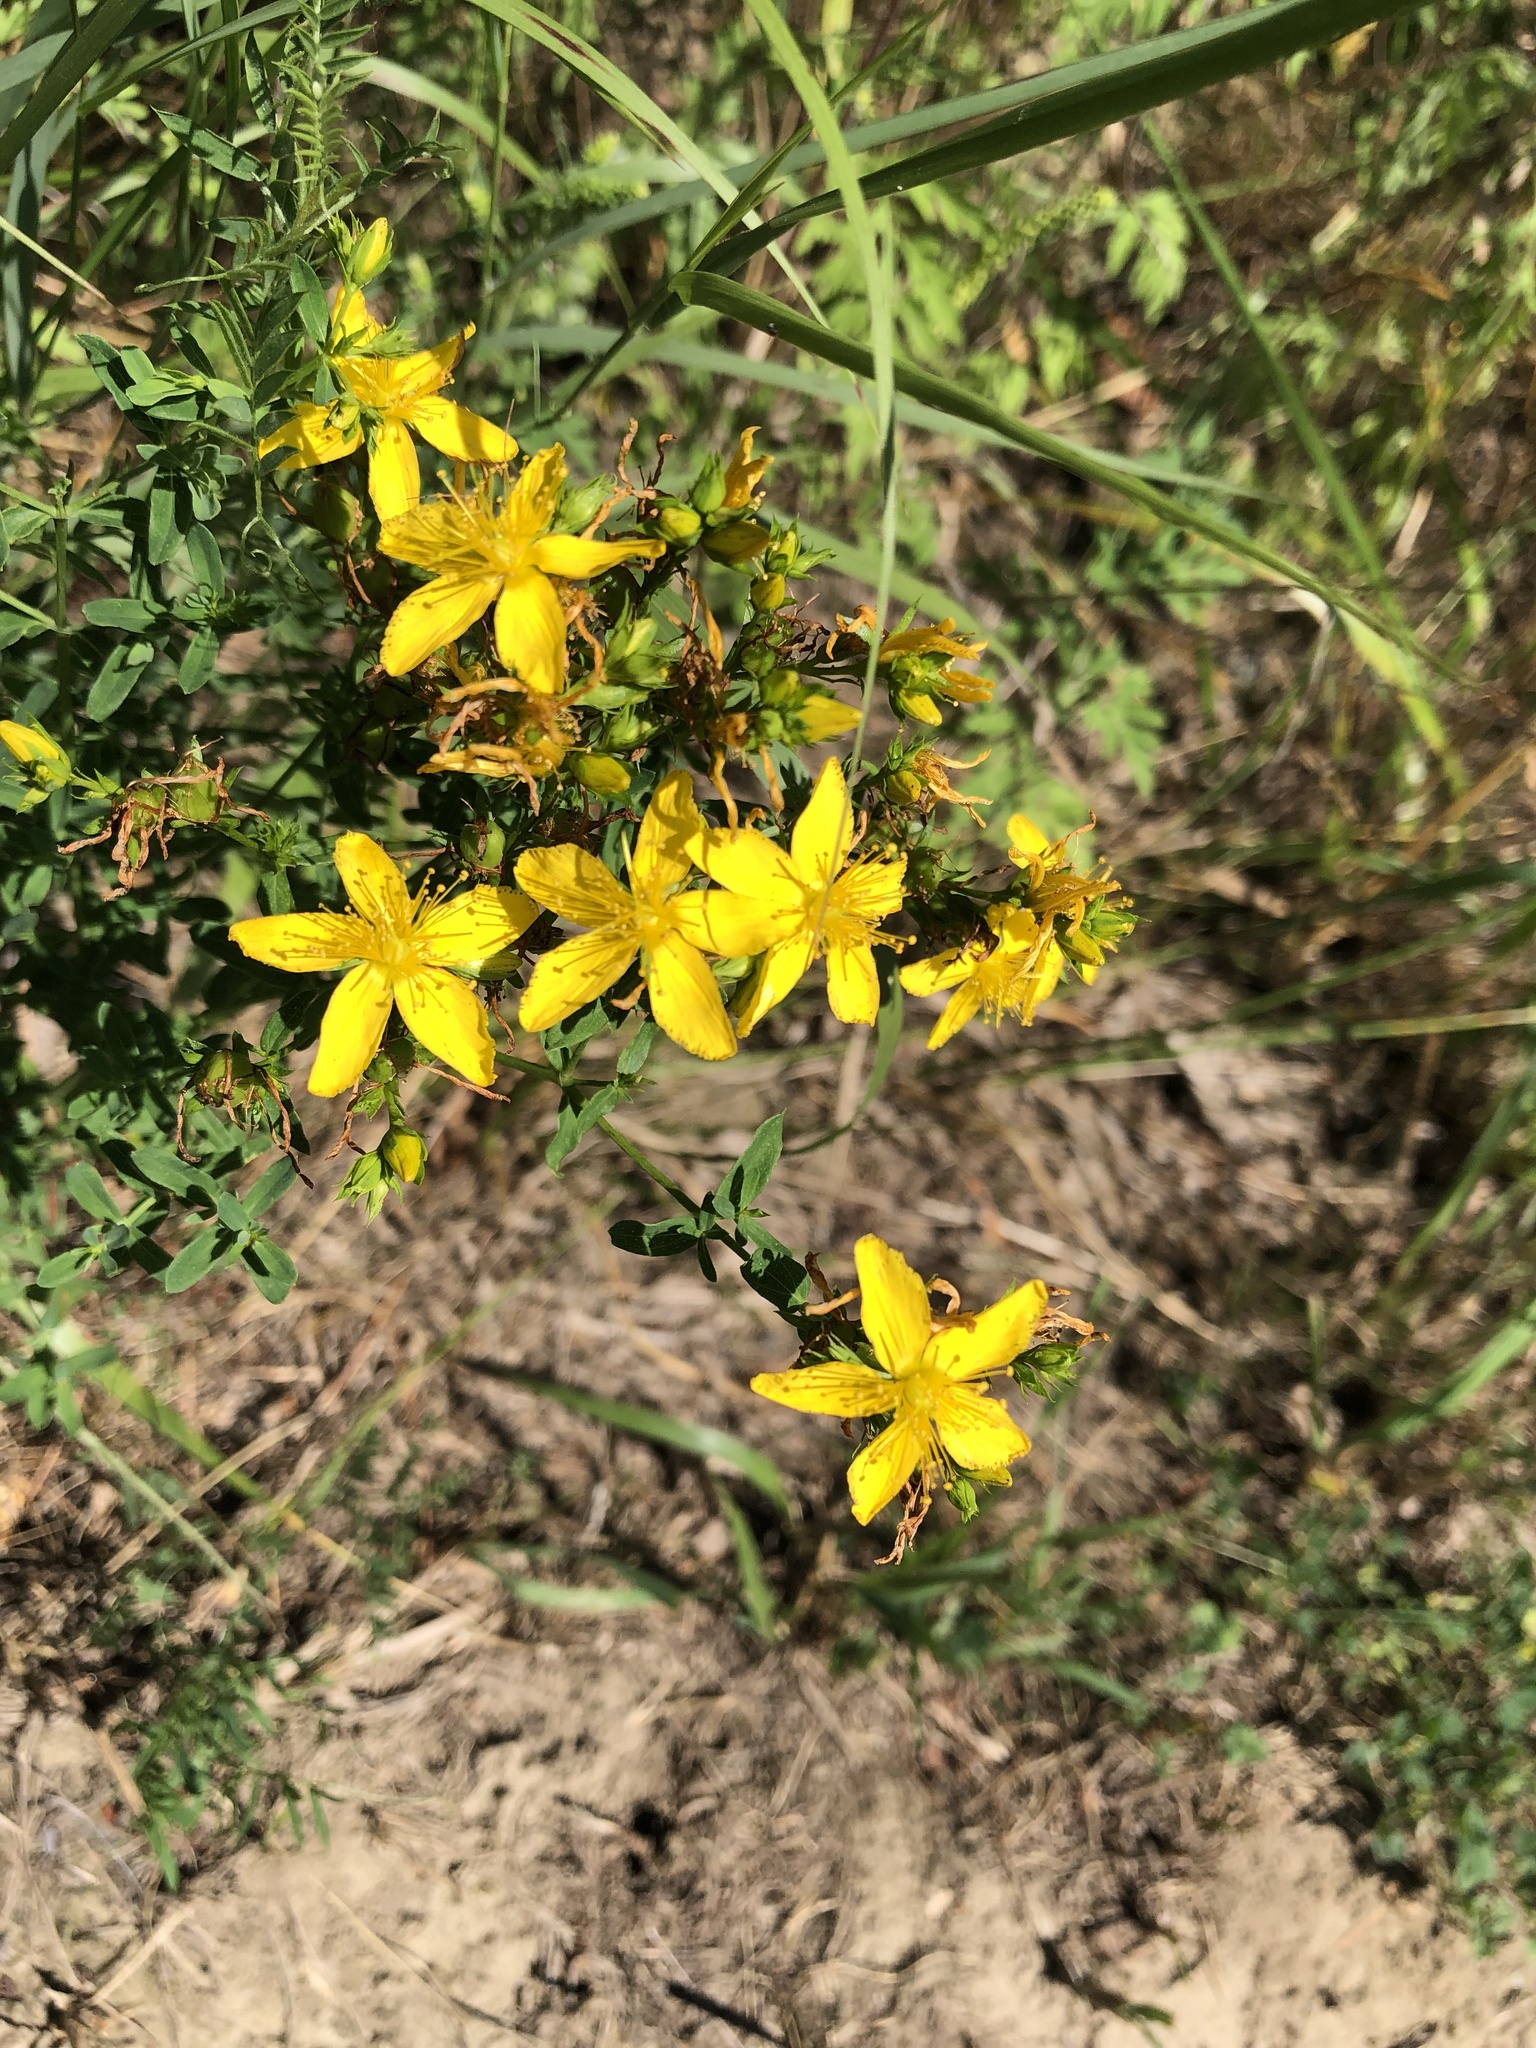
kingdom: Plantae
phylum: Tracheophyta
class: Magnoliopsida
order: Malpighiales
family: Hypericaceae
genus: Hypericum
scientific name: Hypericum perforatum
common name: Common st. johnswort
